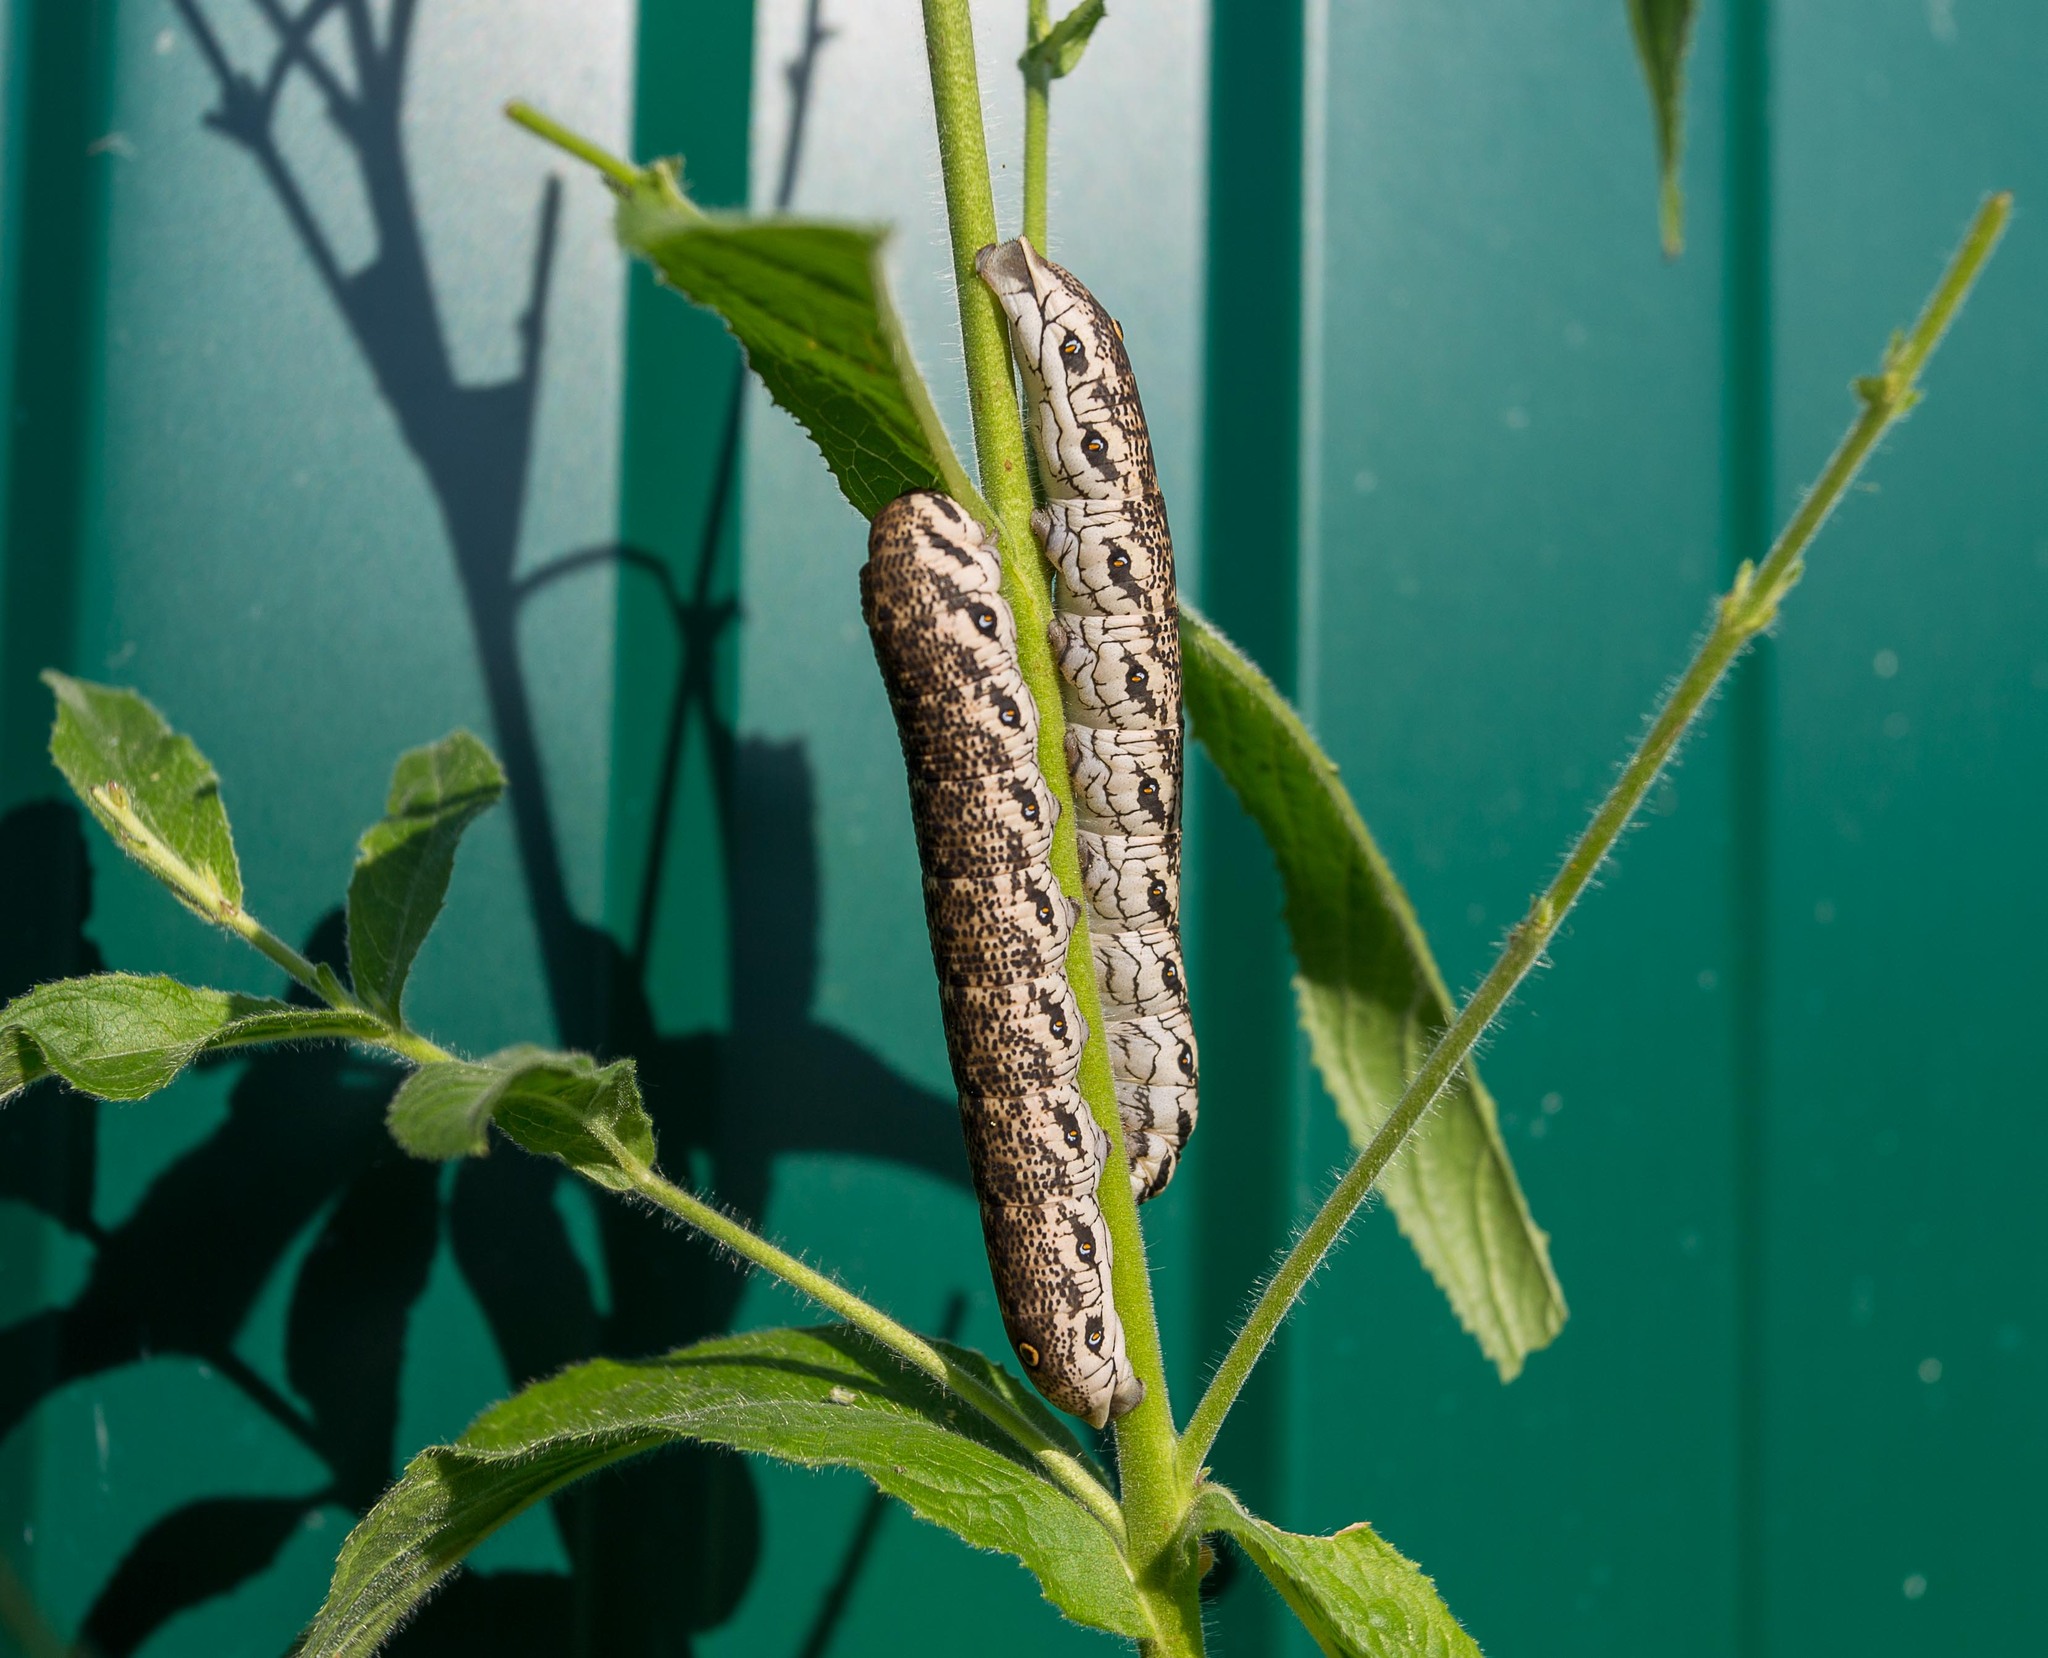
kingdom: Animalia
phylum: Arthropoda
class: Insecta
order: Lepidoptera
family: Sphingidae
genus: Proserpinus
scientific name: Proserpinus proserpina
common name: Willowherb hawkmoth
